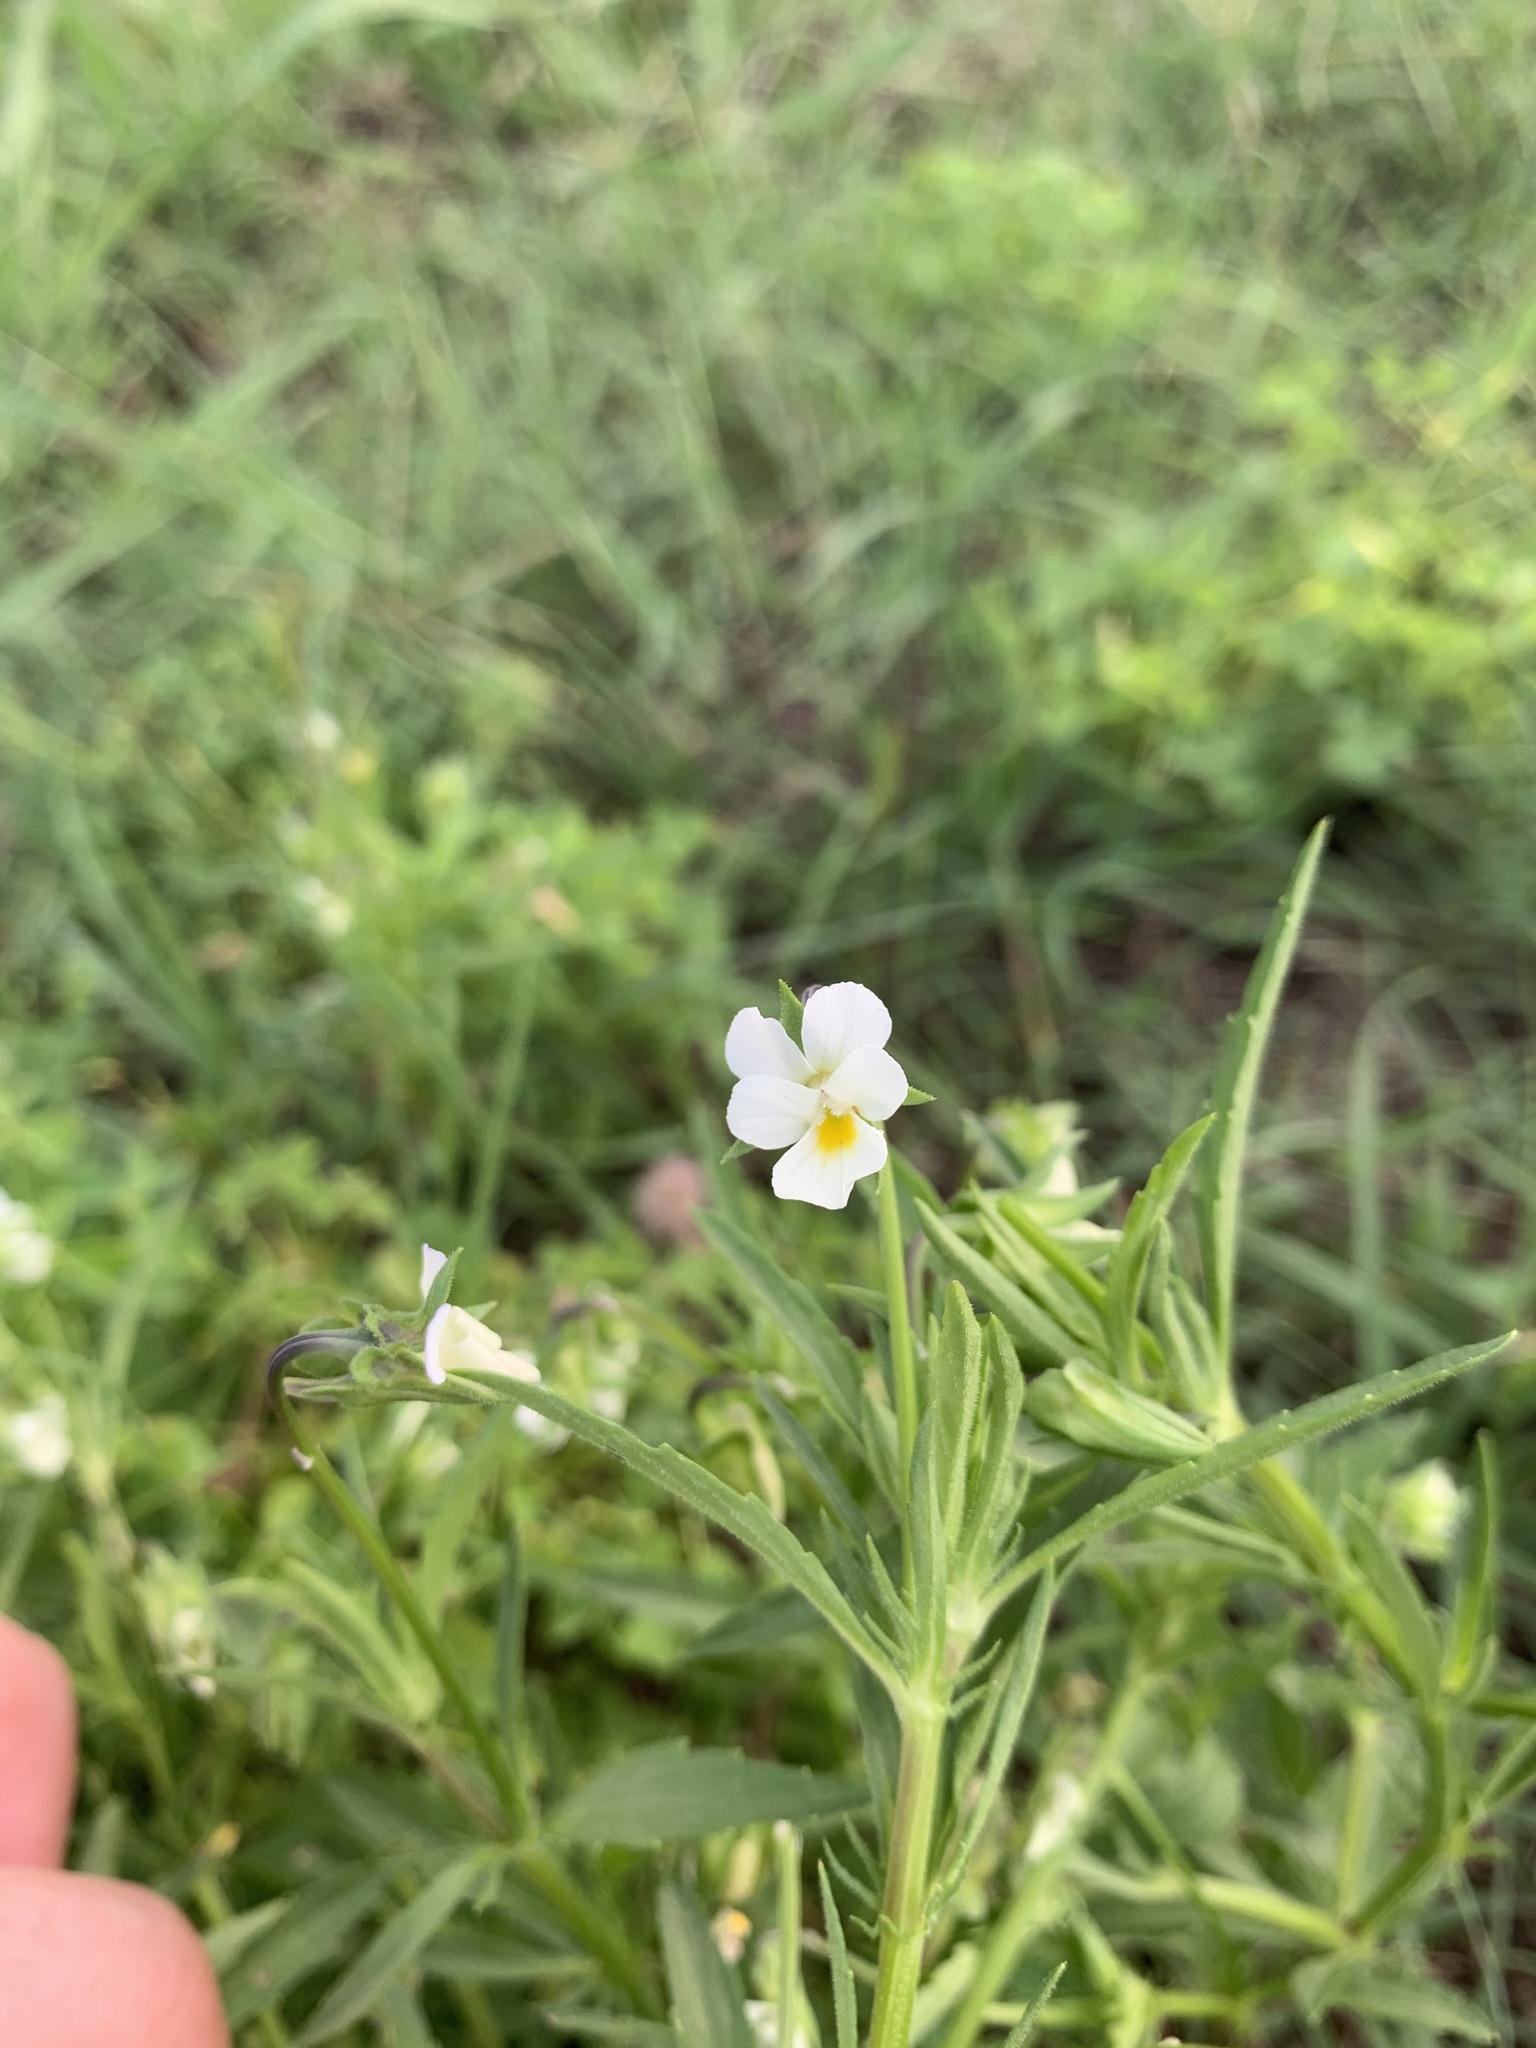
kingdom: Plantae
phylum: Tracheophyta
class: Magnoliopsida
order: Malpighiales
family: Violaceae
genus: Viola
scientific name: Viola arvensis
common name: Field pansy
